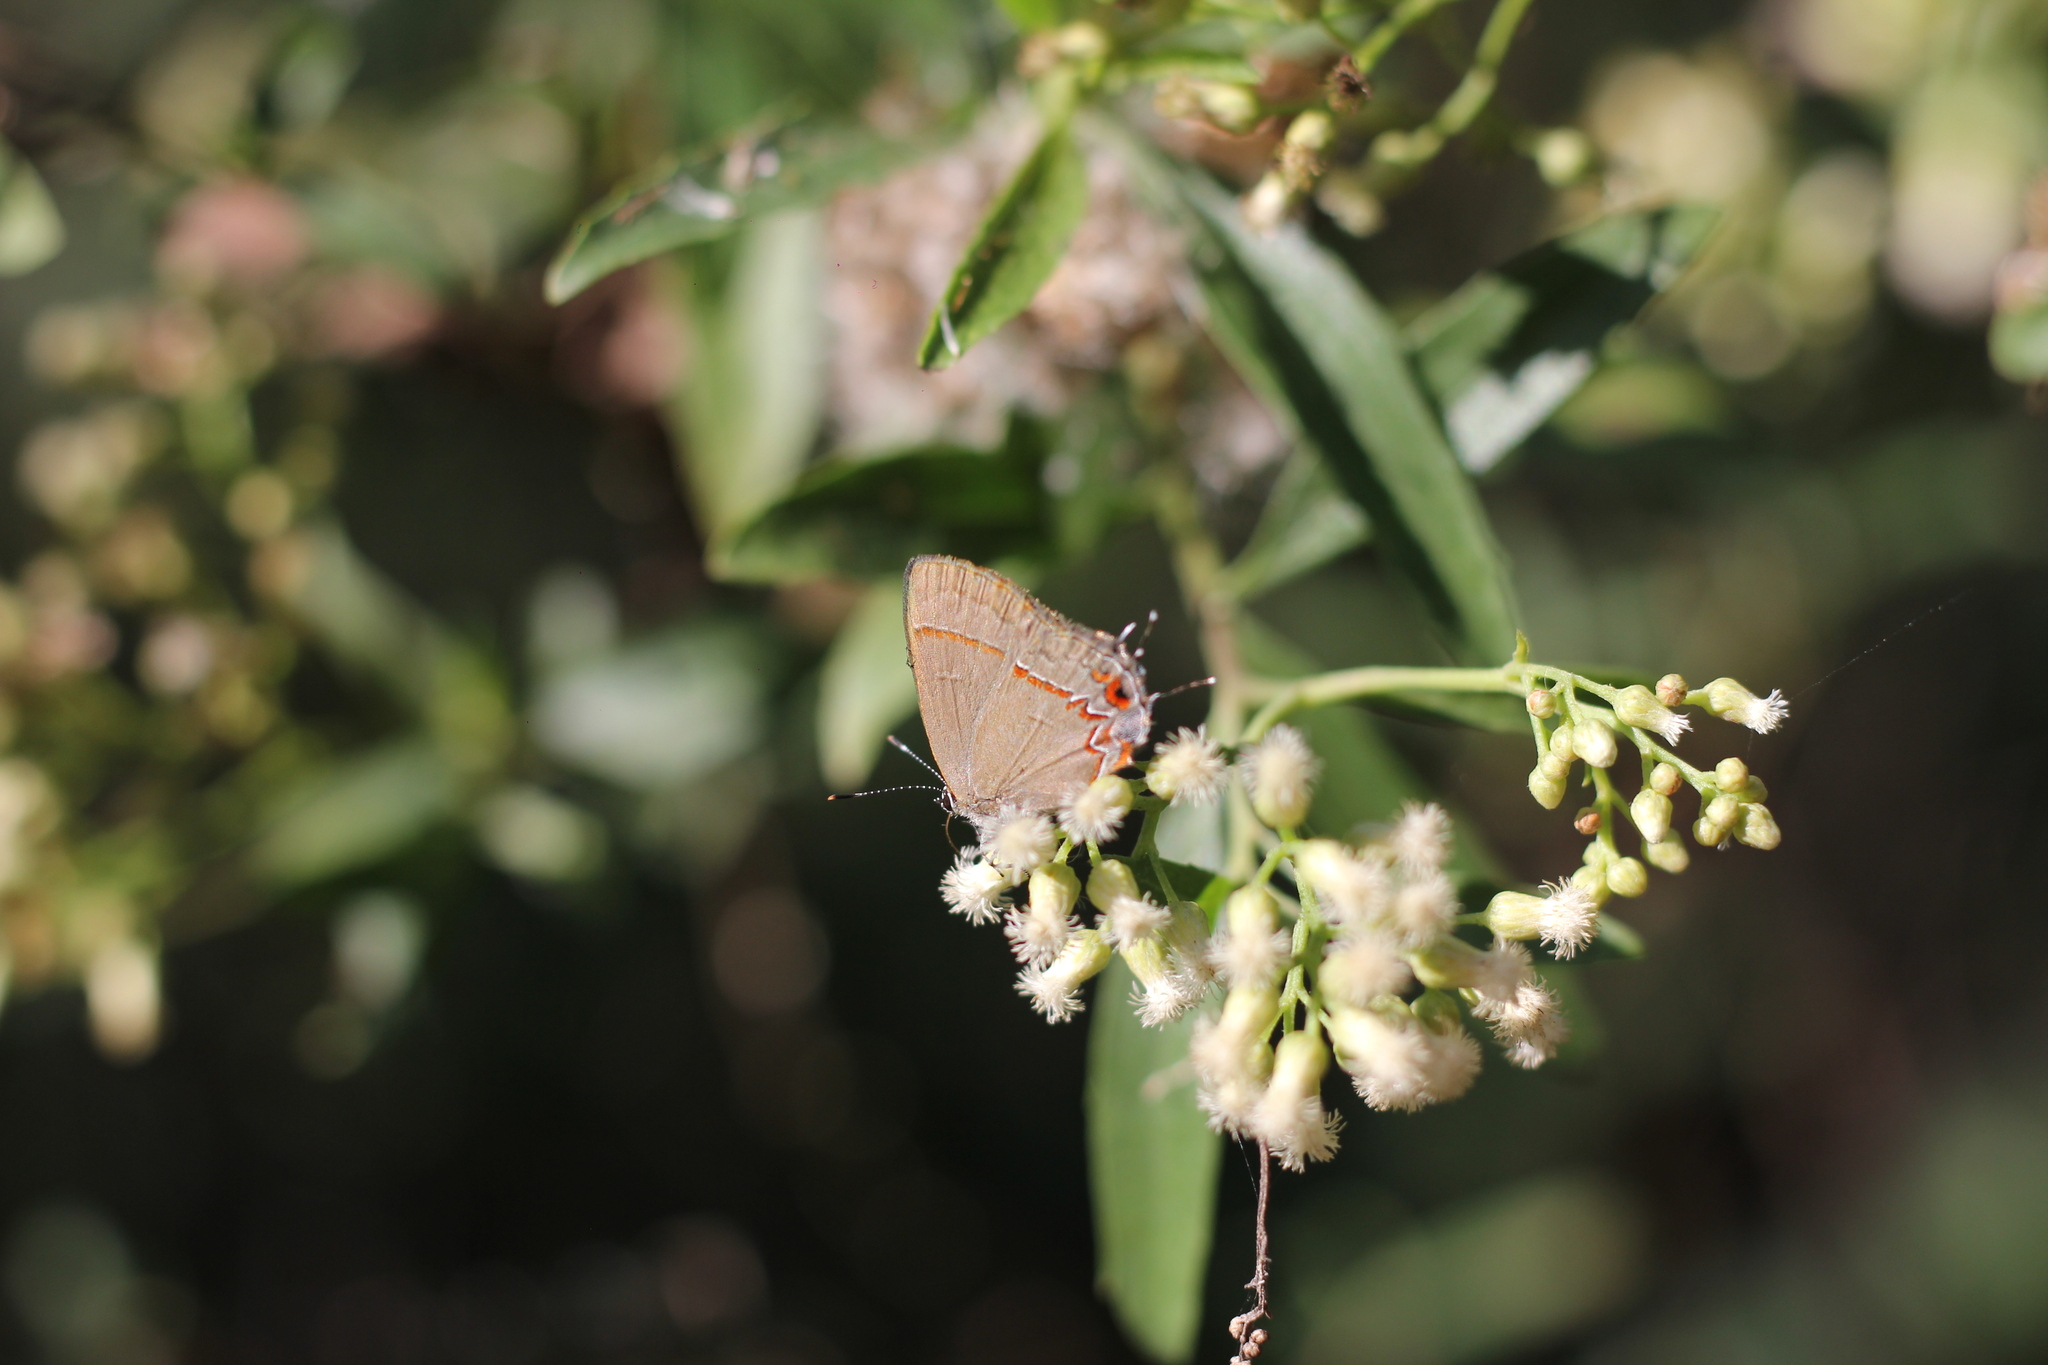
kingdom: Animalia
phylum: Arthropoda
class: Insecta
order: Lepidoptera
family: Lycaenidae
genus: Calycopis
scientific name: Calycopis caulonia
